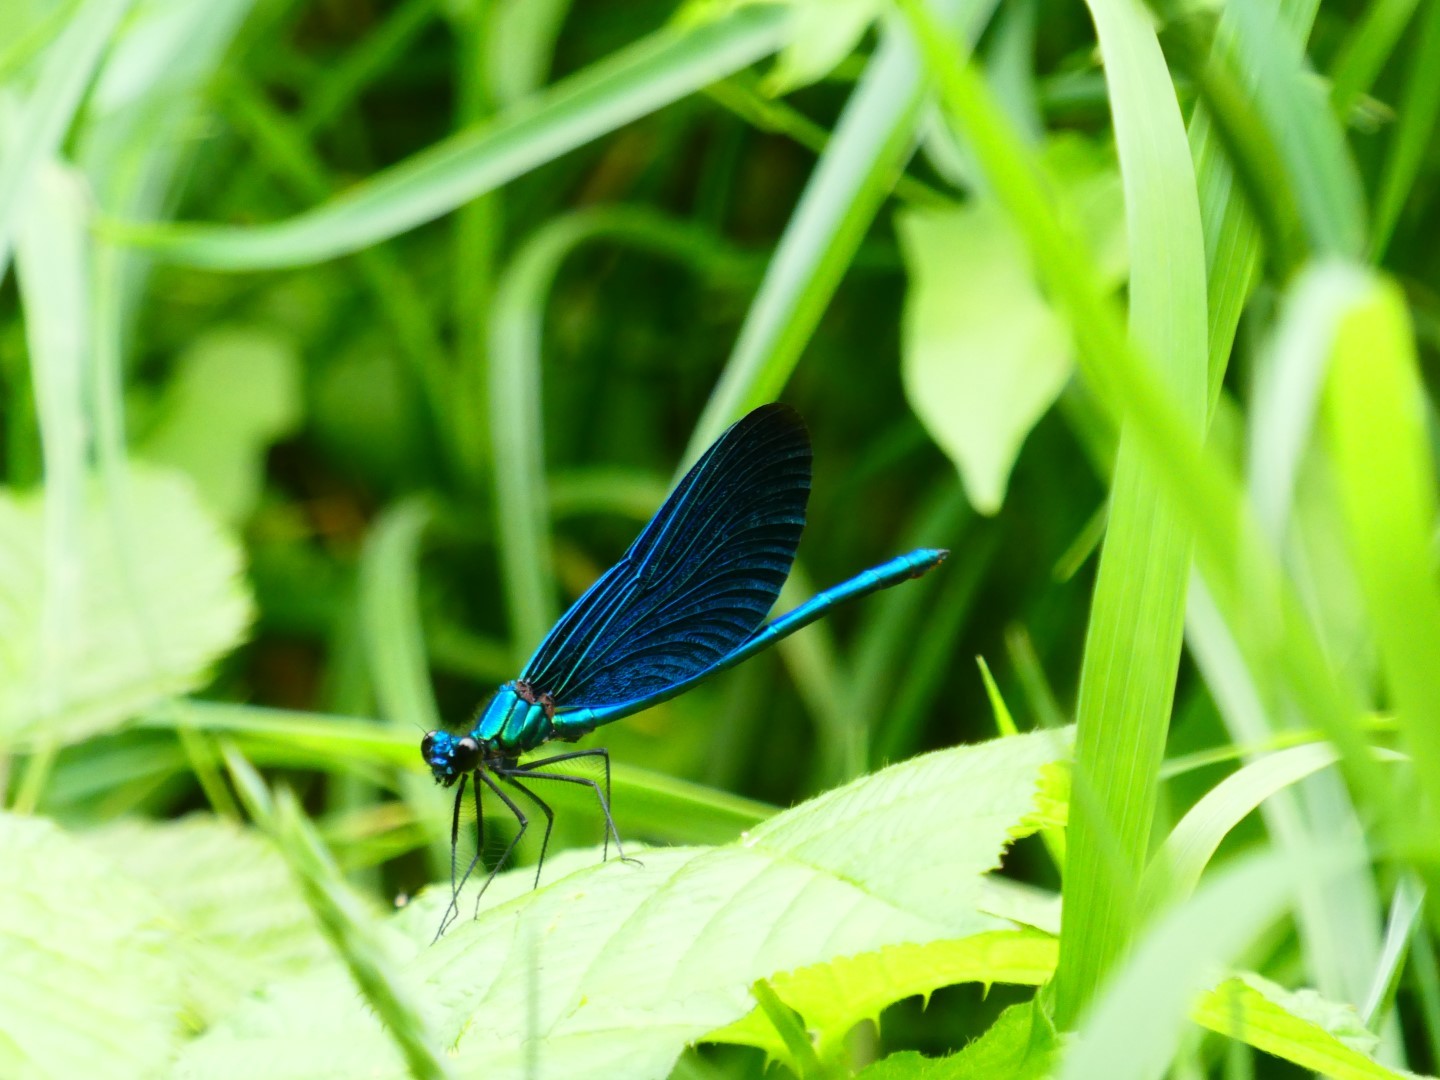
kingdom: Animalia
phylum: Arthropoda
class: Insecta
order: Odonata
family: Calopterygidae
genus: Calopteryx
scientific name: Calopteryx virgo
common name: Beautiful demoiselle
